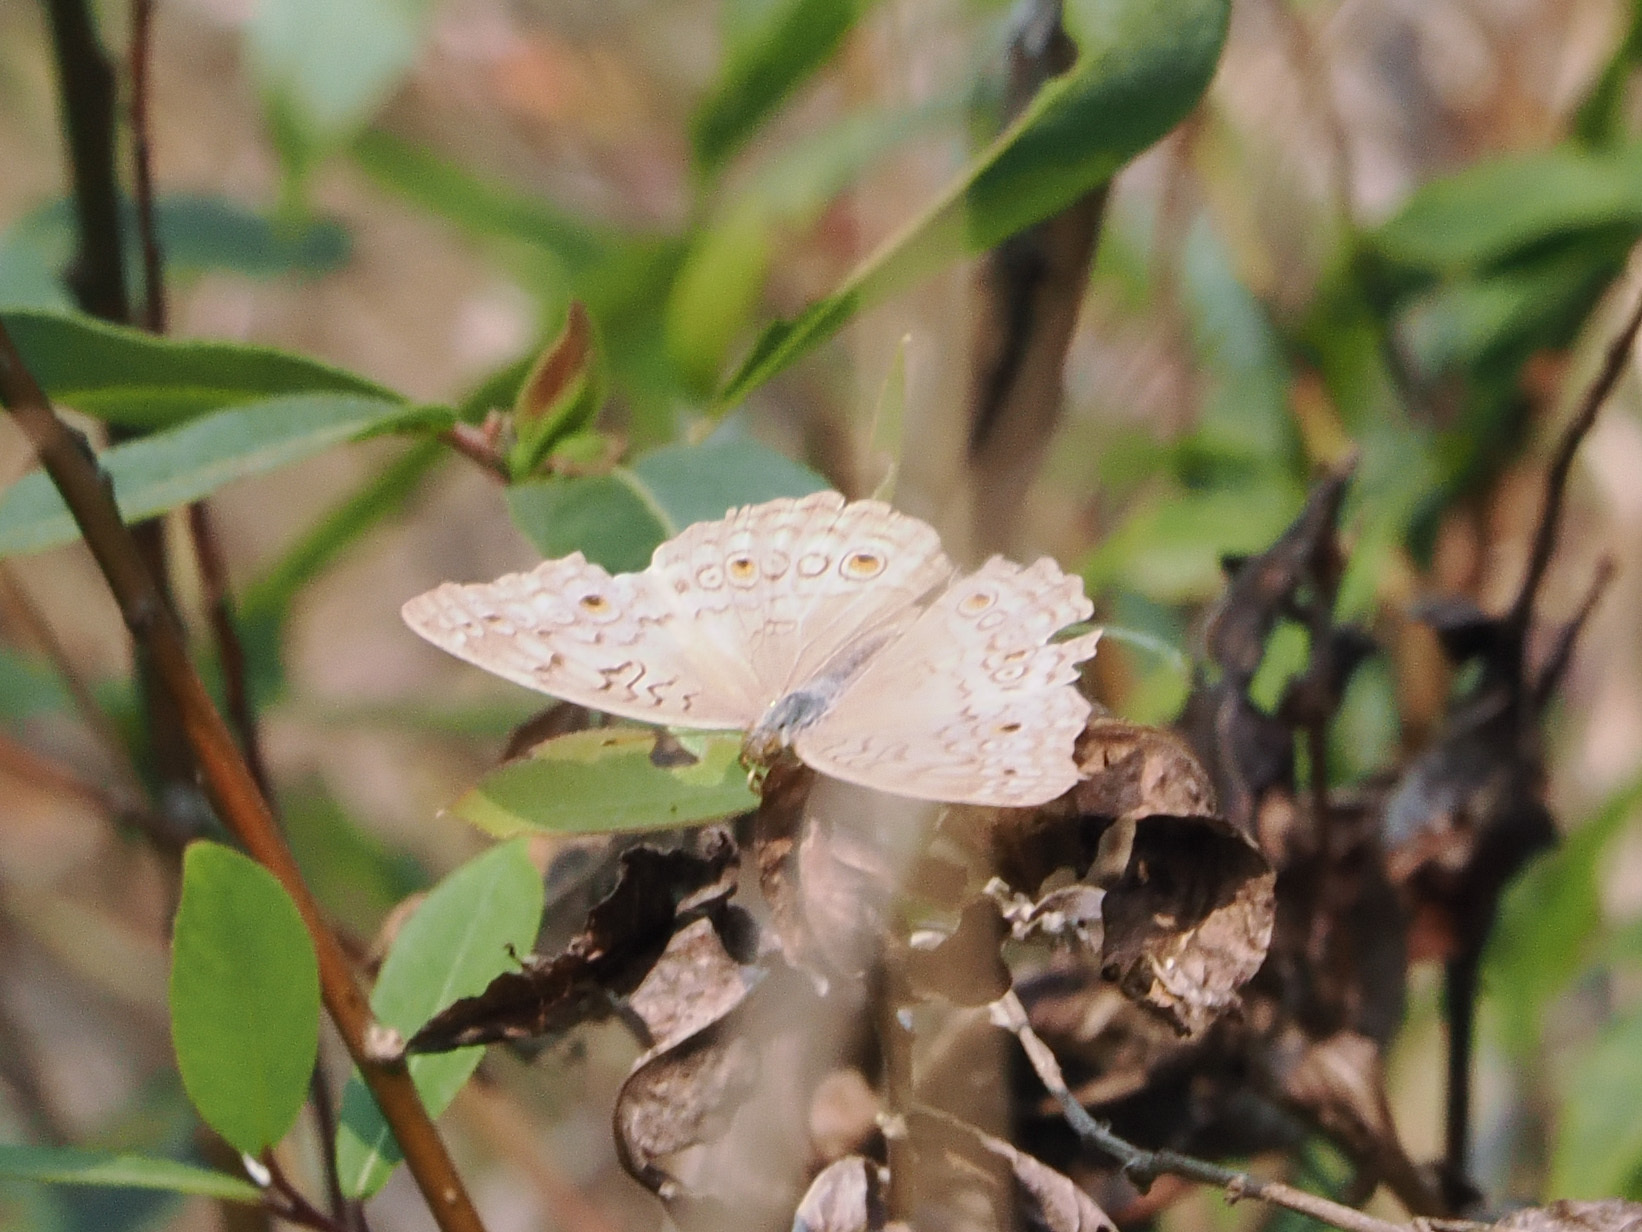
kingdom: Animalia
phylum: Arthropoda
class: Insecta
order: Lepidoptera
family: Nymphalidae
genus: Junonia
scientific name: Junonia atlites
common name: Grey pansy
